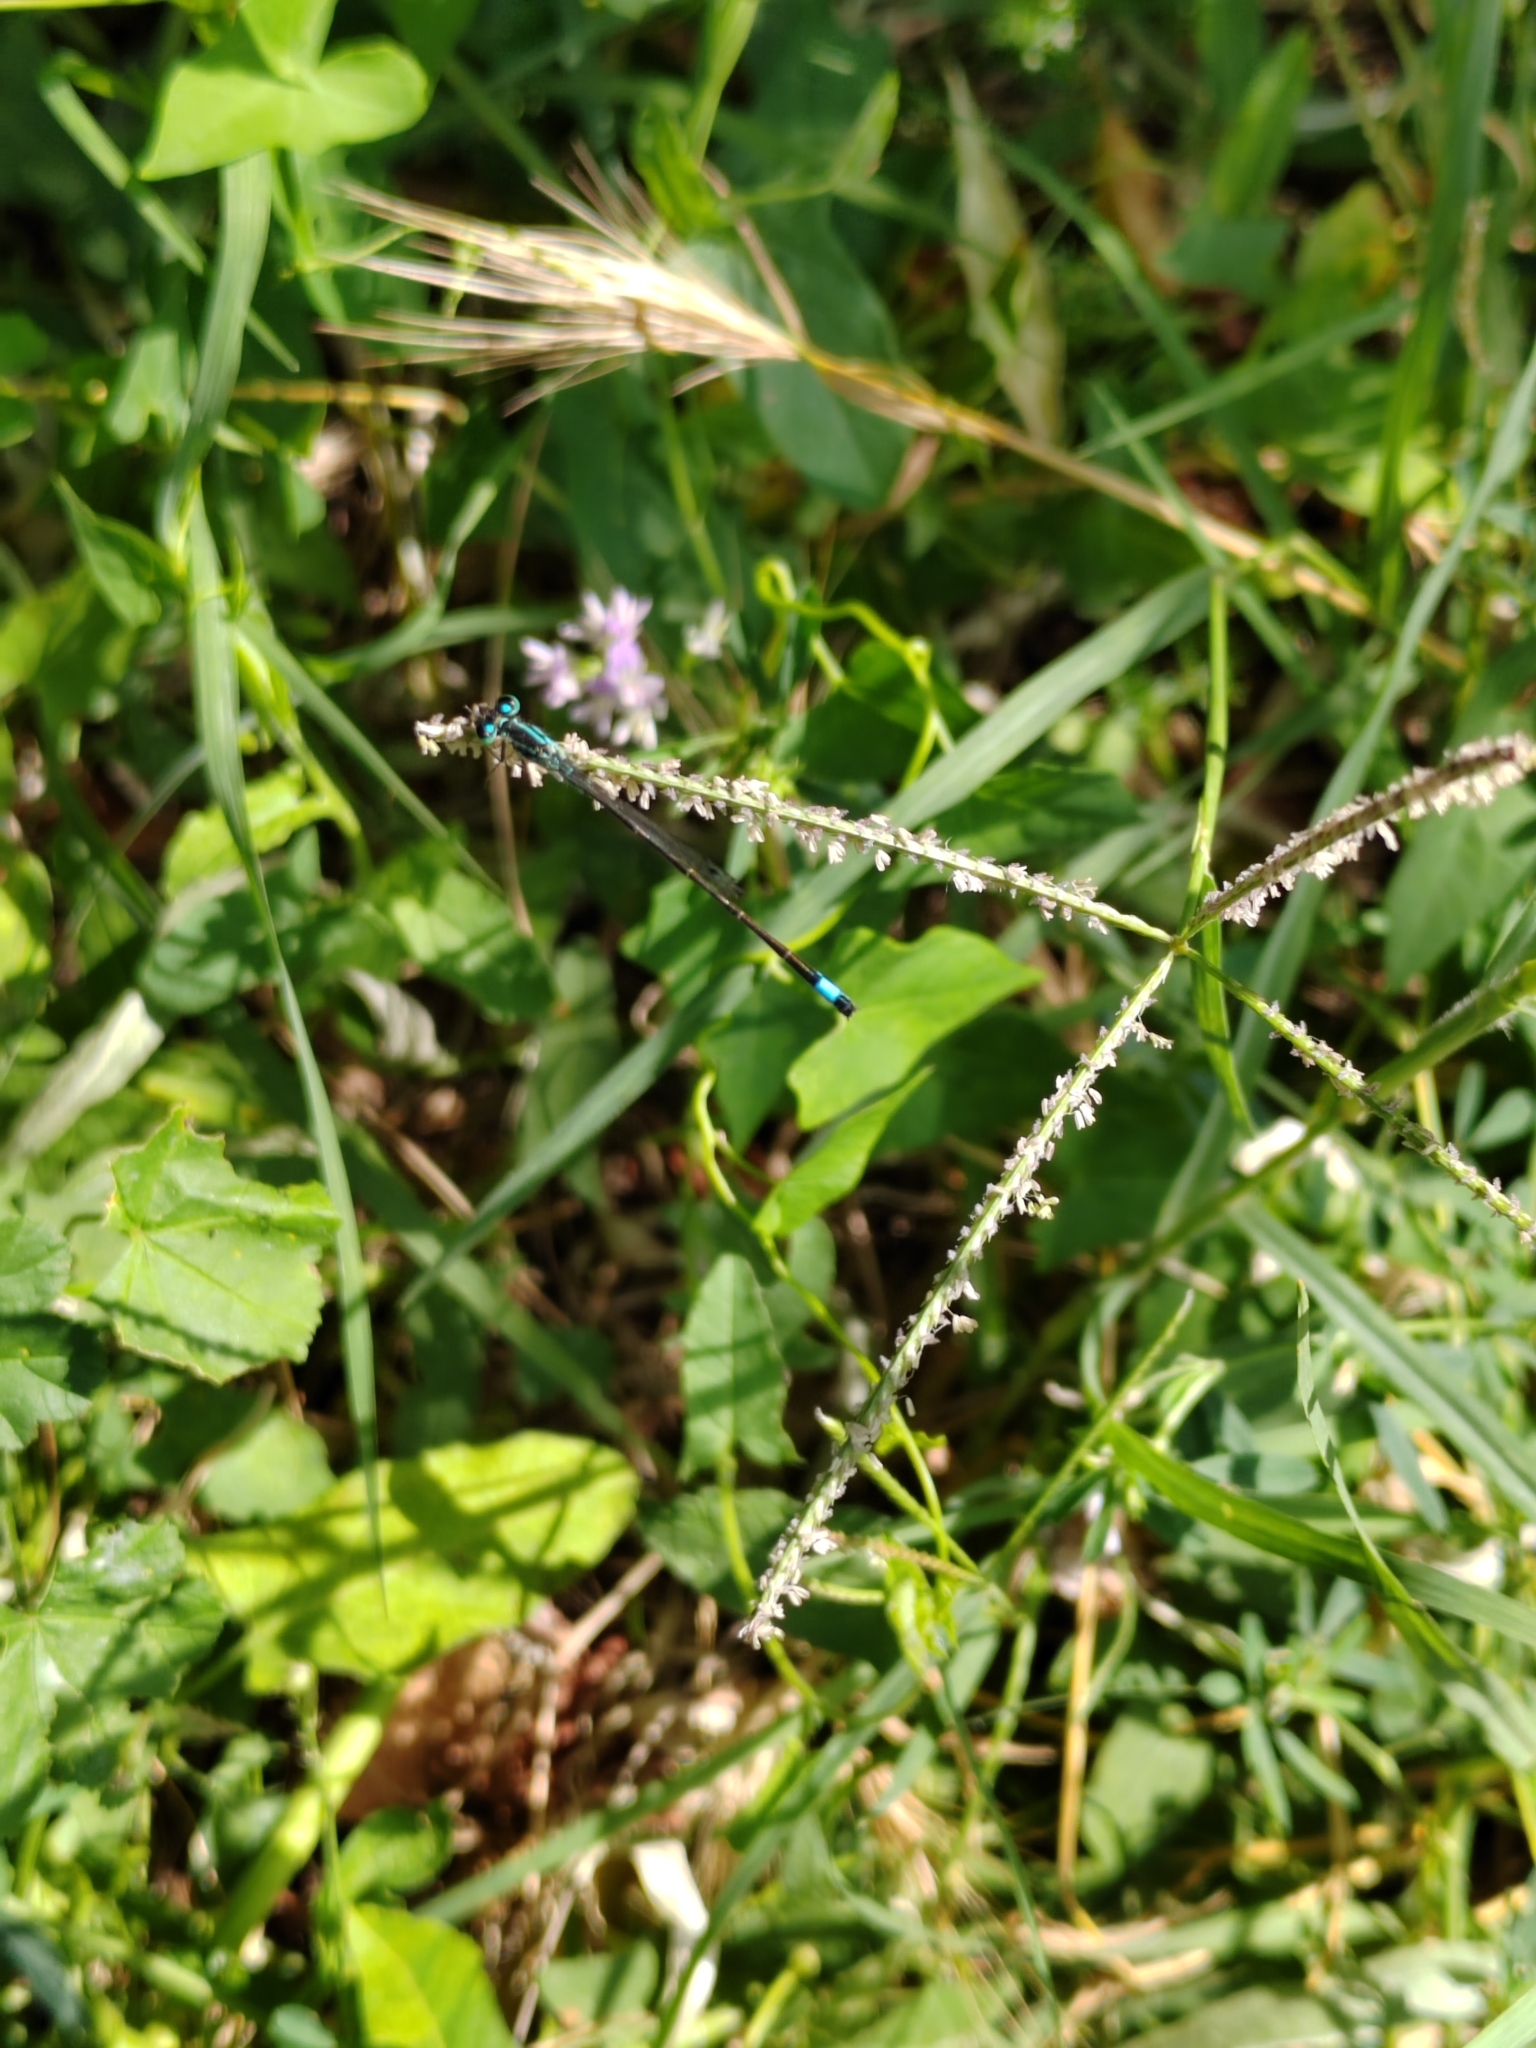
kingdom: Animalia
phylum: Arthropoda
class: Insecta
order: Odonata
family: Coenagrionidae
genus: Ischnura
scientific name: Ischnura elegans
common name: Blue-tailed damselfly
